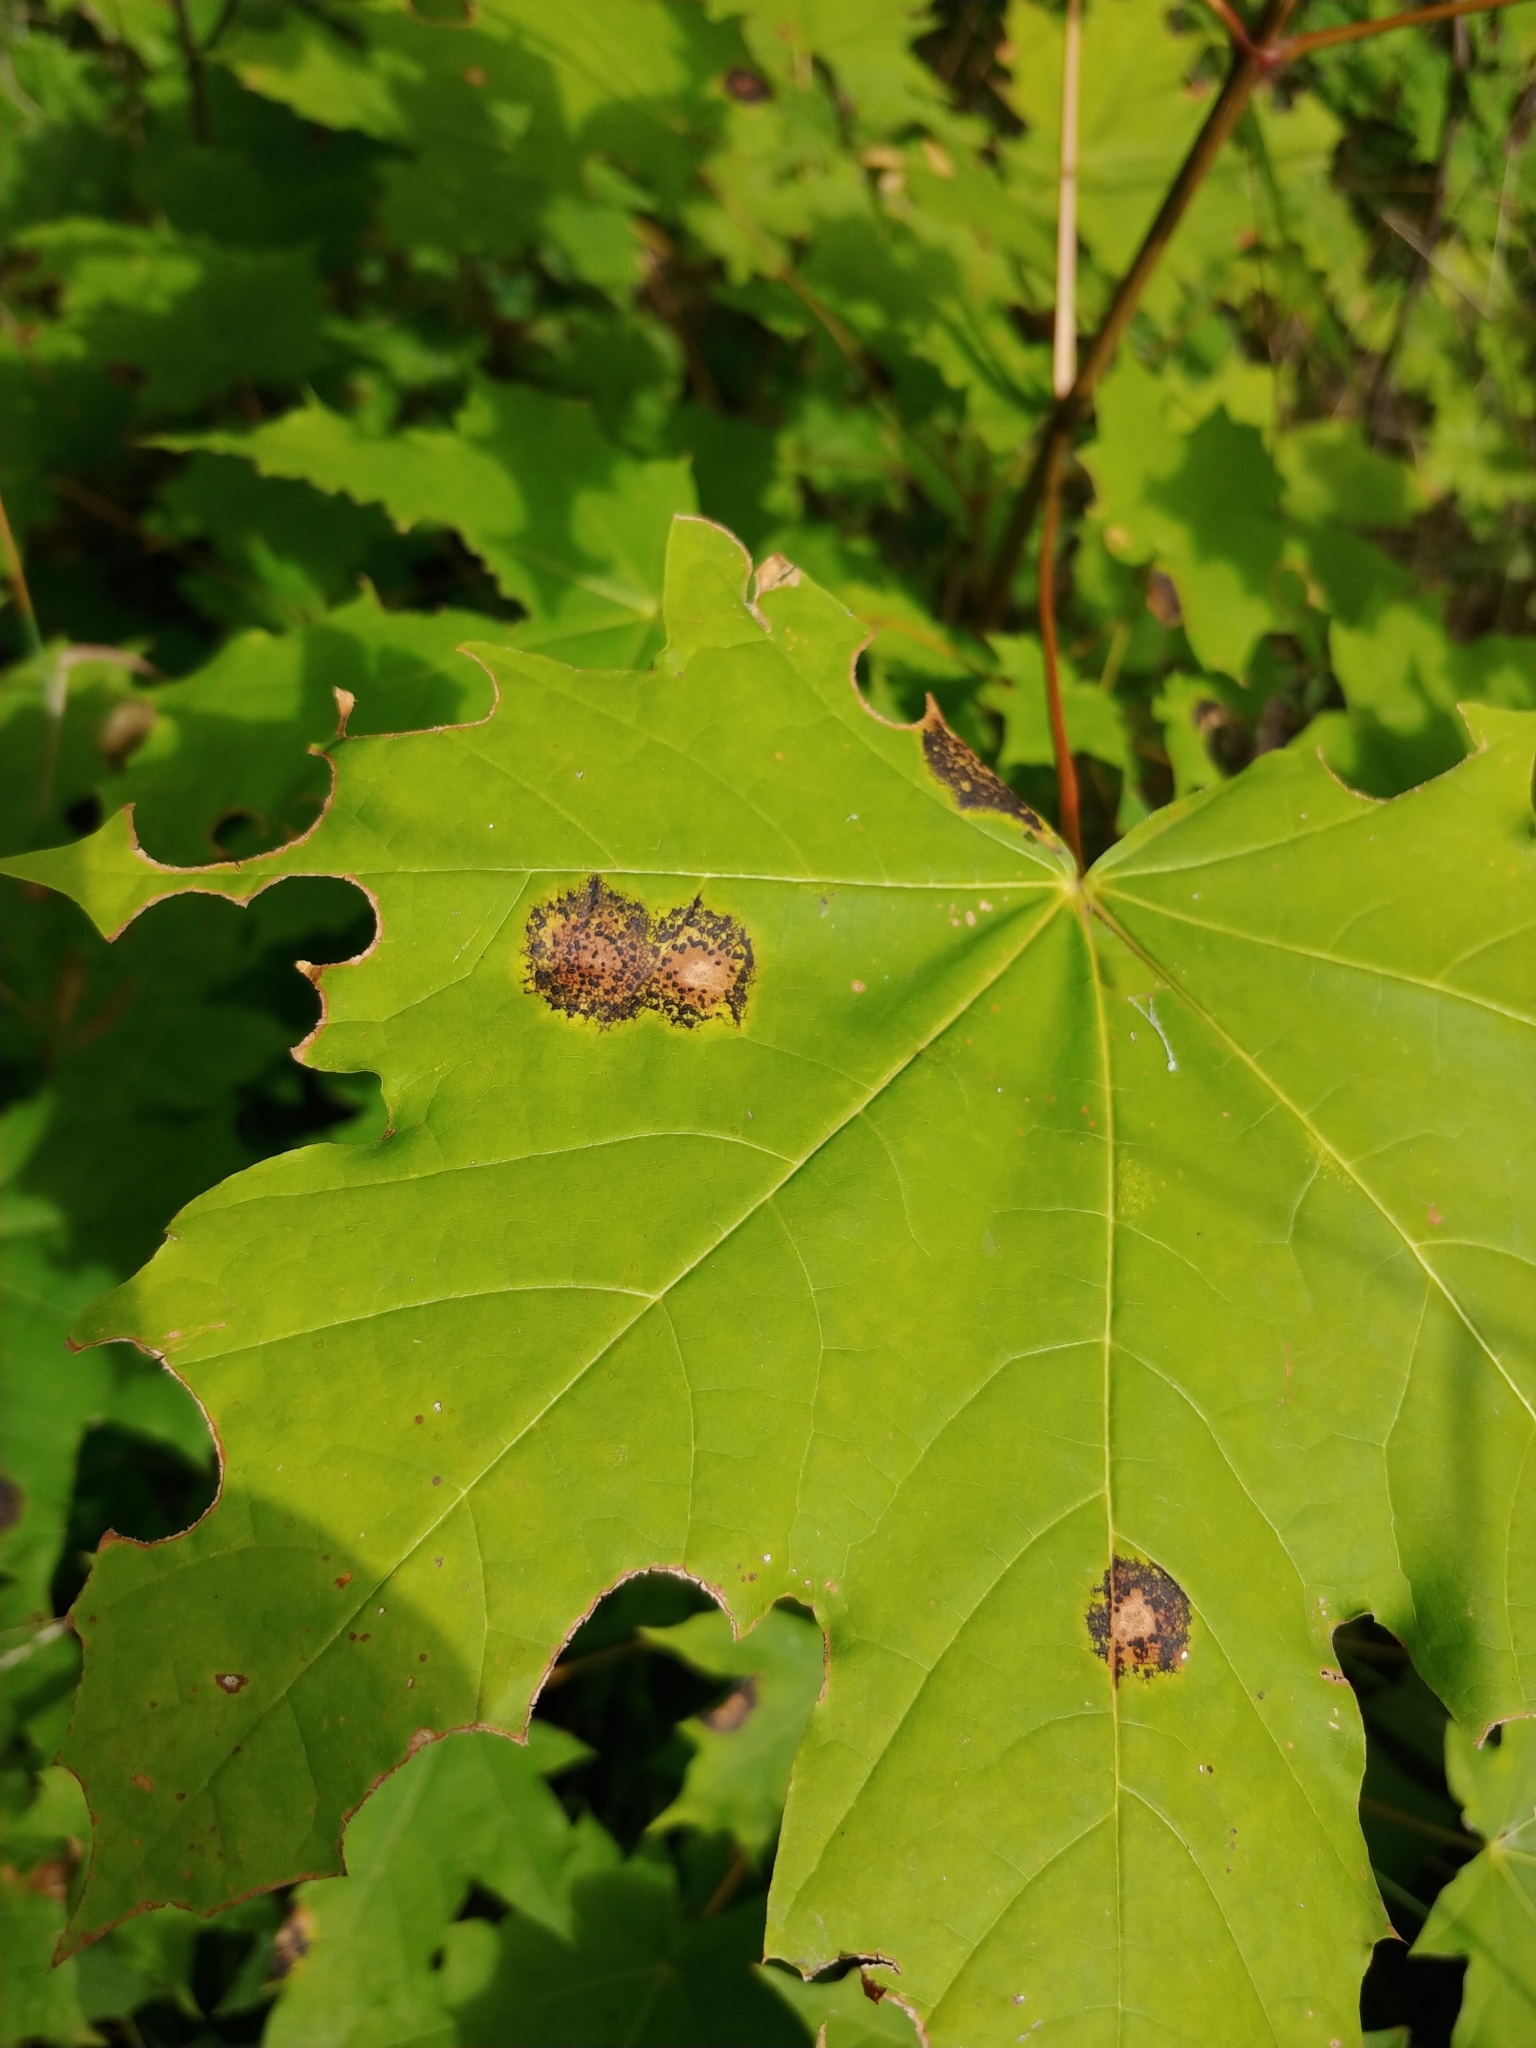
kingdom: Fungi
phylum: Ascomycota
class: Leotiomycetes
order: Rhytismatales
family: Rhytismataceae
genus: Rhytisma
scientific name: Rhytisma acerinum
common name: European tar spot
